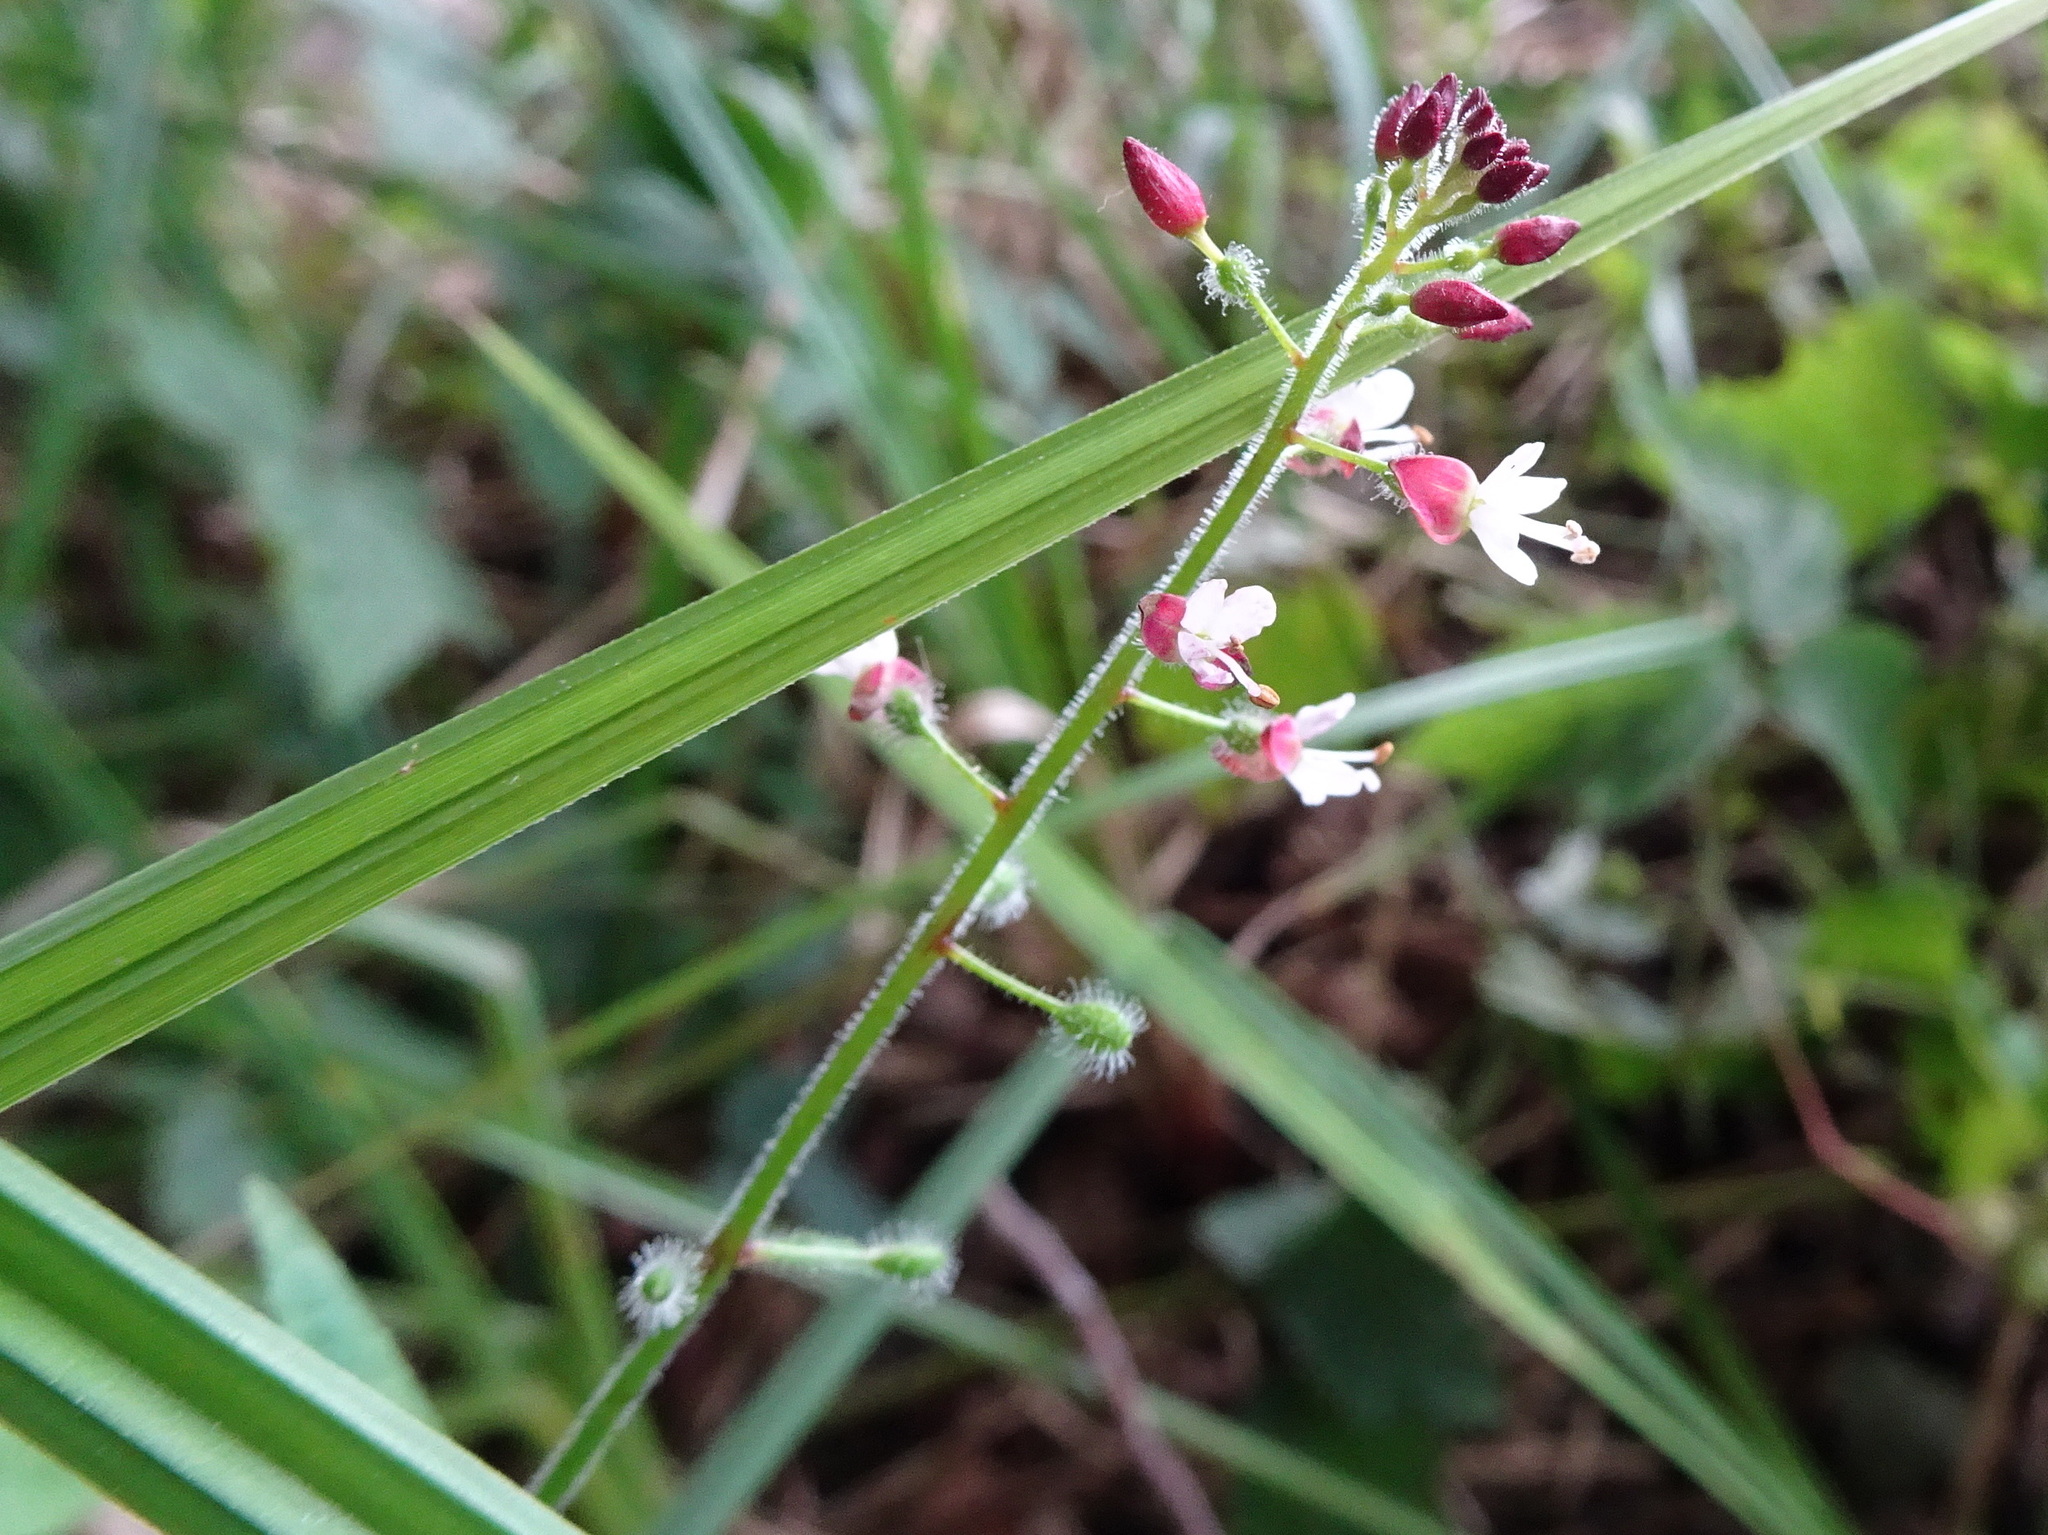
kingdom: Plantae
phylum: Tracheophyta
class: Magnoliopsida
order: Myrtales
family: Onagraceae
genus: Circaea
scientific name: Circaea lutetiana
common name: Enchanter's-nightshade
